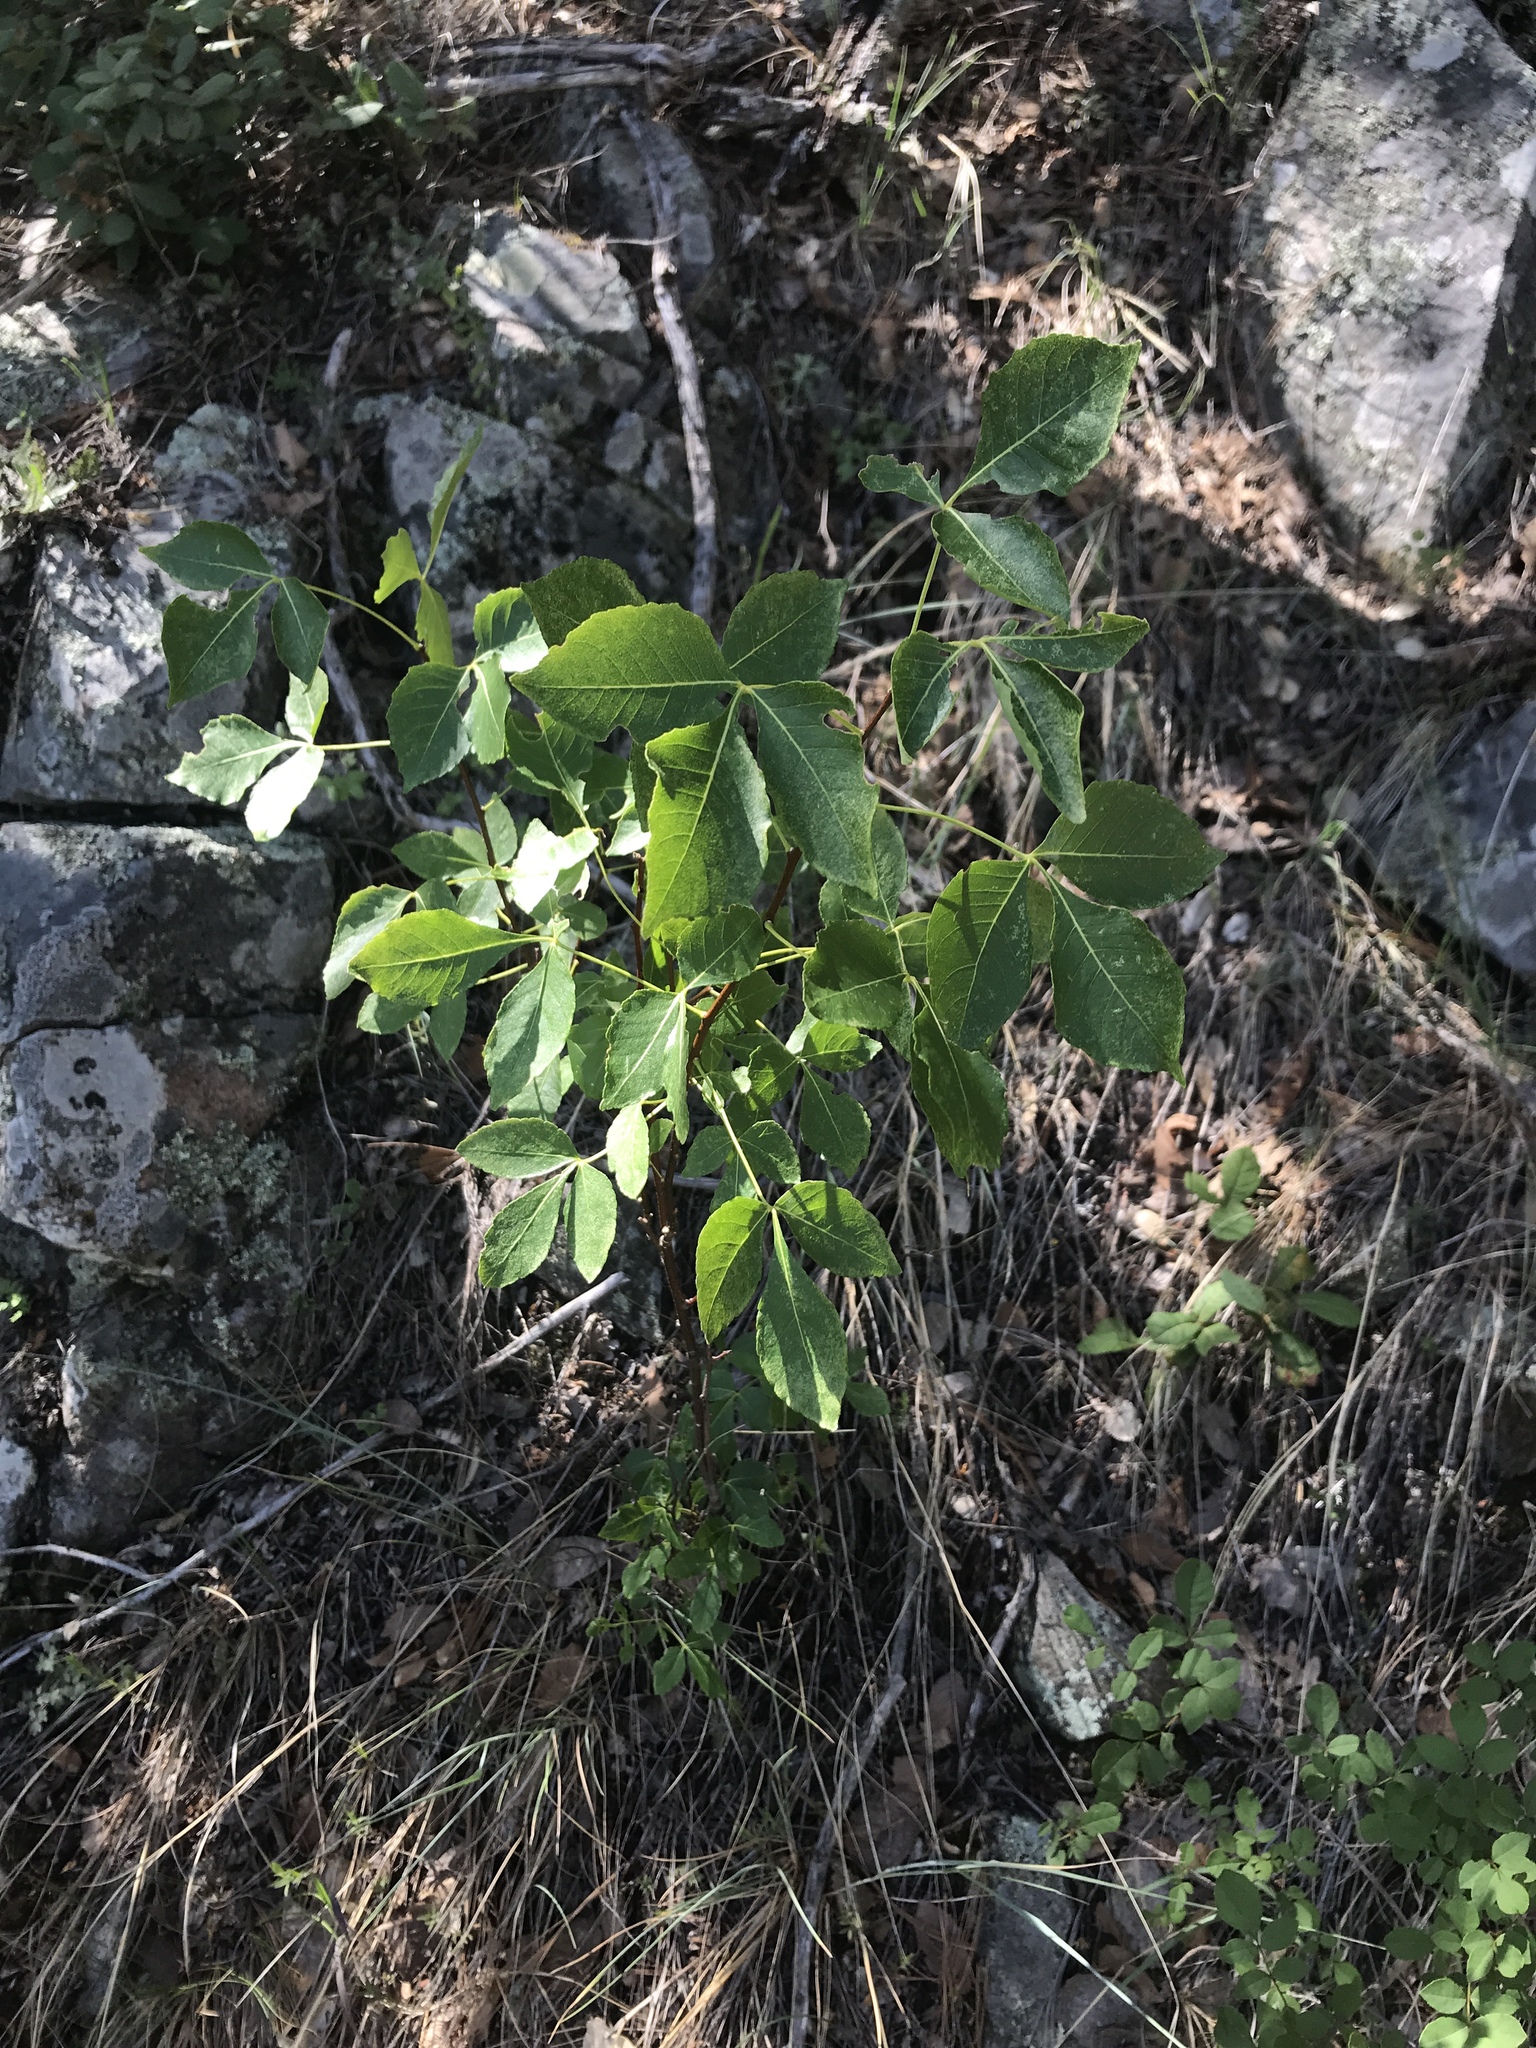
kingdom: Plantae
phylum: Tracheophyta
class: Magnoliopsida
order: Sapindales
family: Rutaceae
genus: Ptelea
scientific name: Ptelea trifoliata
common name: Common hop-tree
